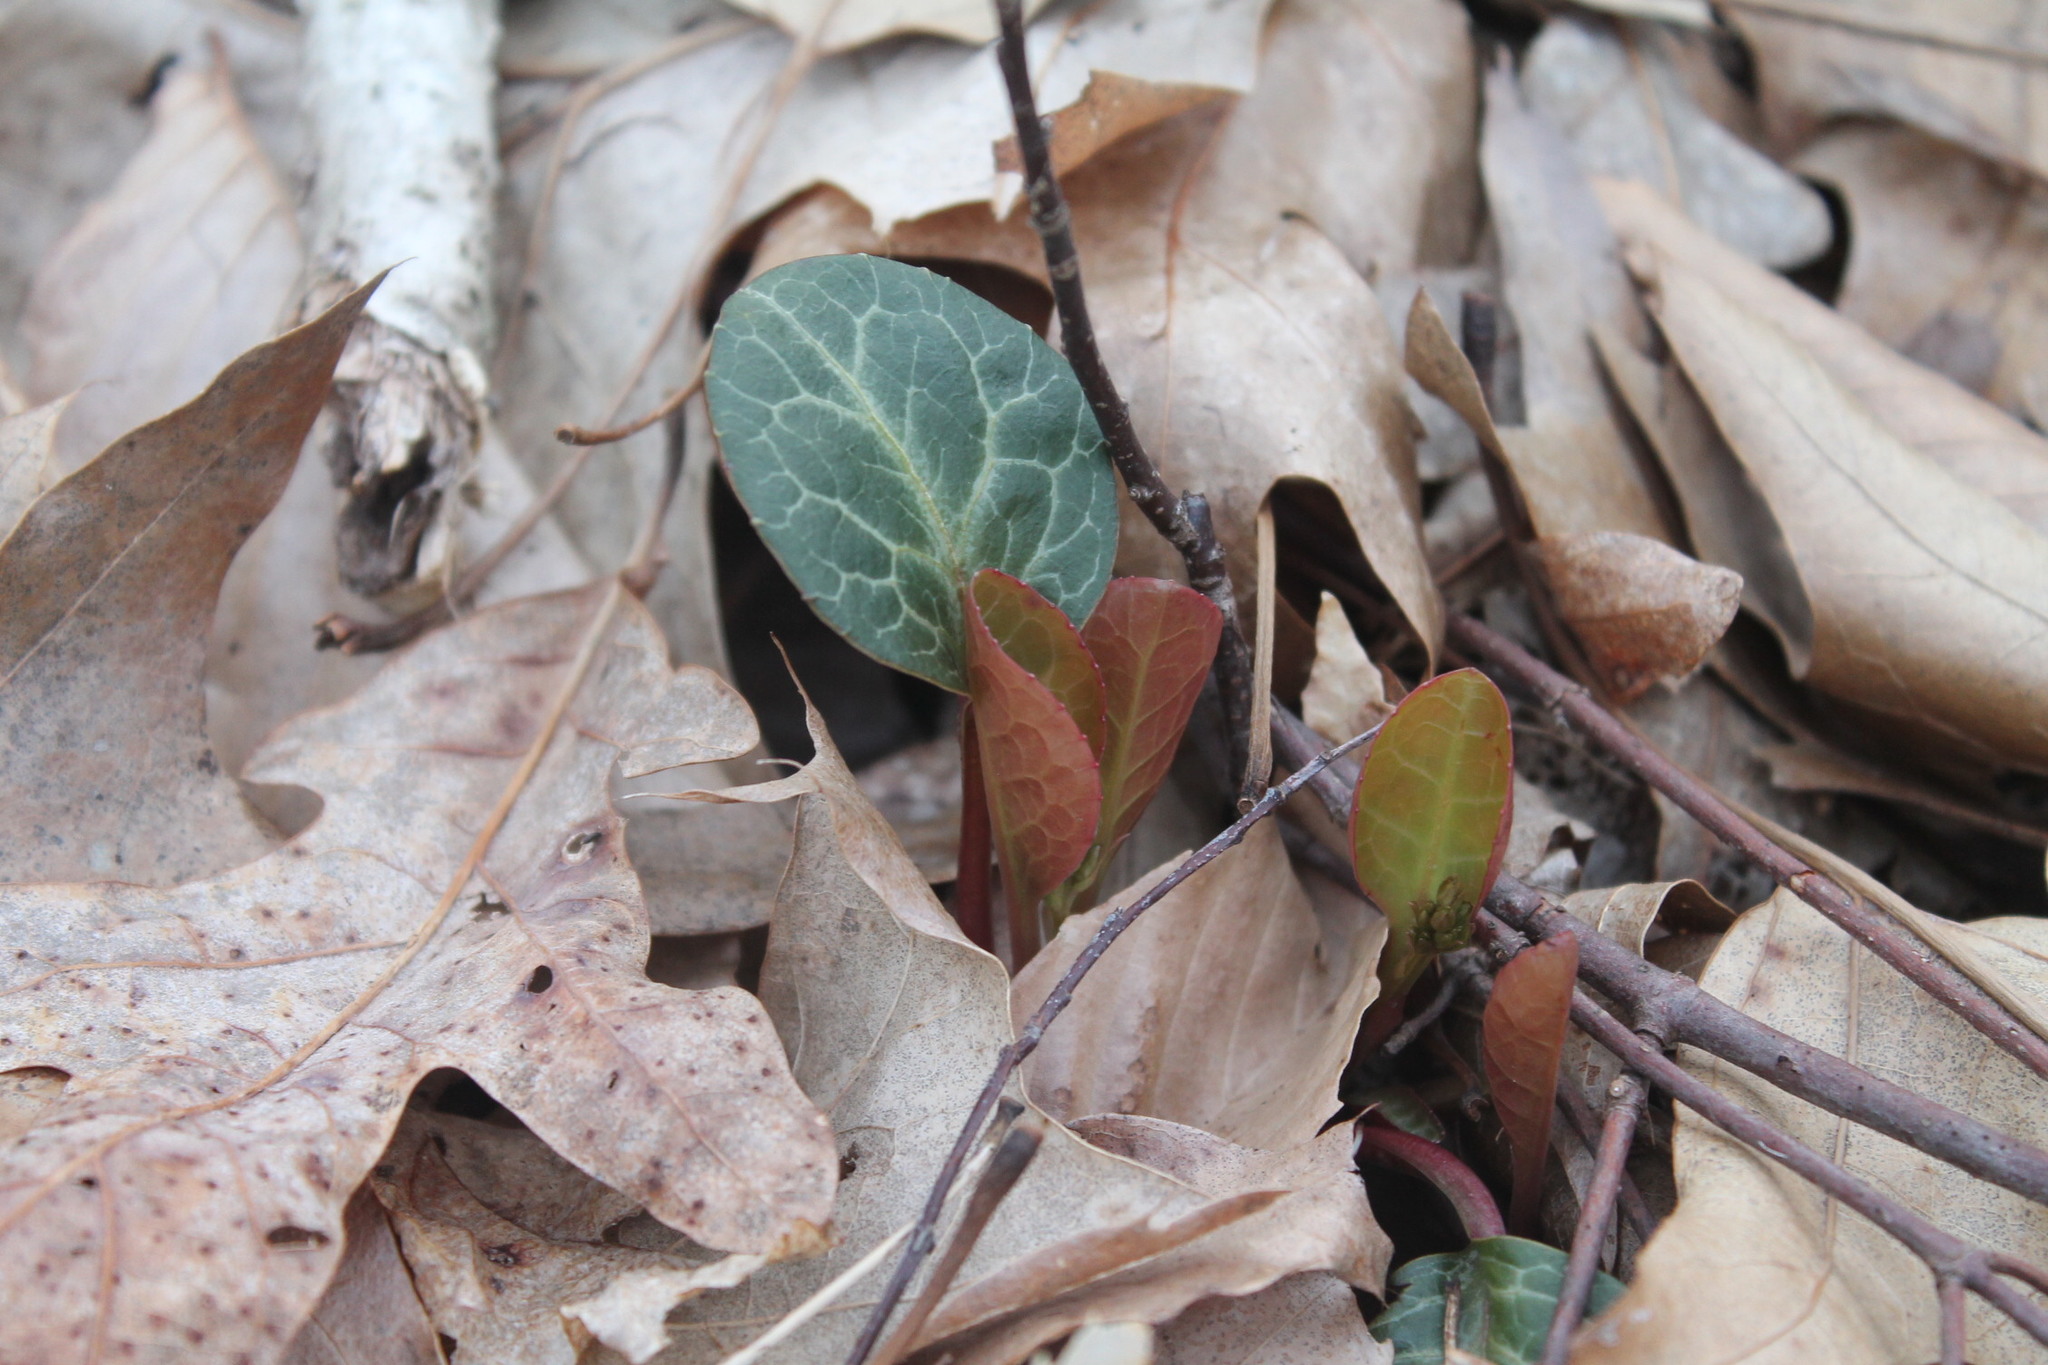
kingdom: Plantae
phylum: Tracheophyta
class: Magnoliopsida
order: Ericales
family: Ericaceae
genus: Pyrola
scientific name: Pyrola americana
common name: American wintergreen
